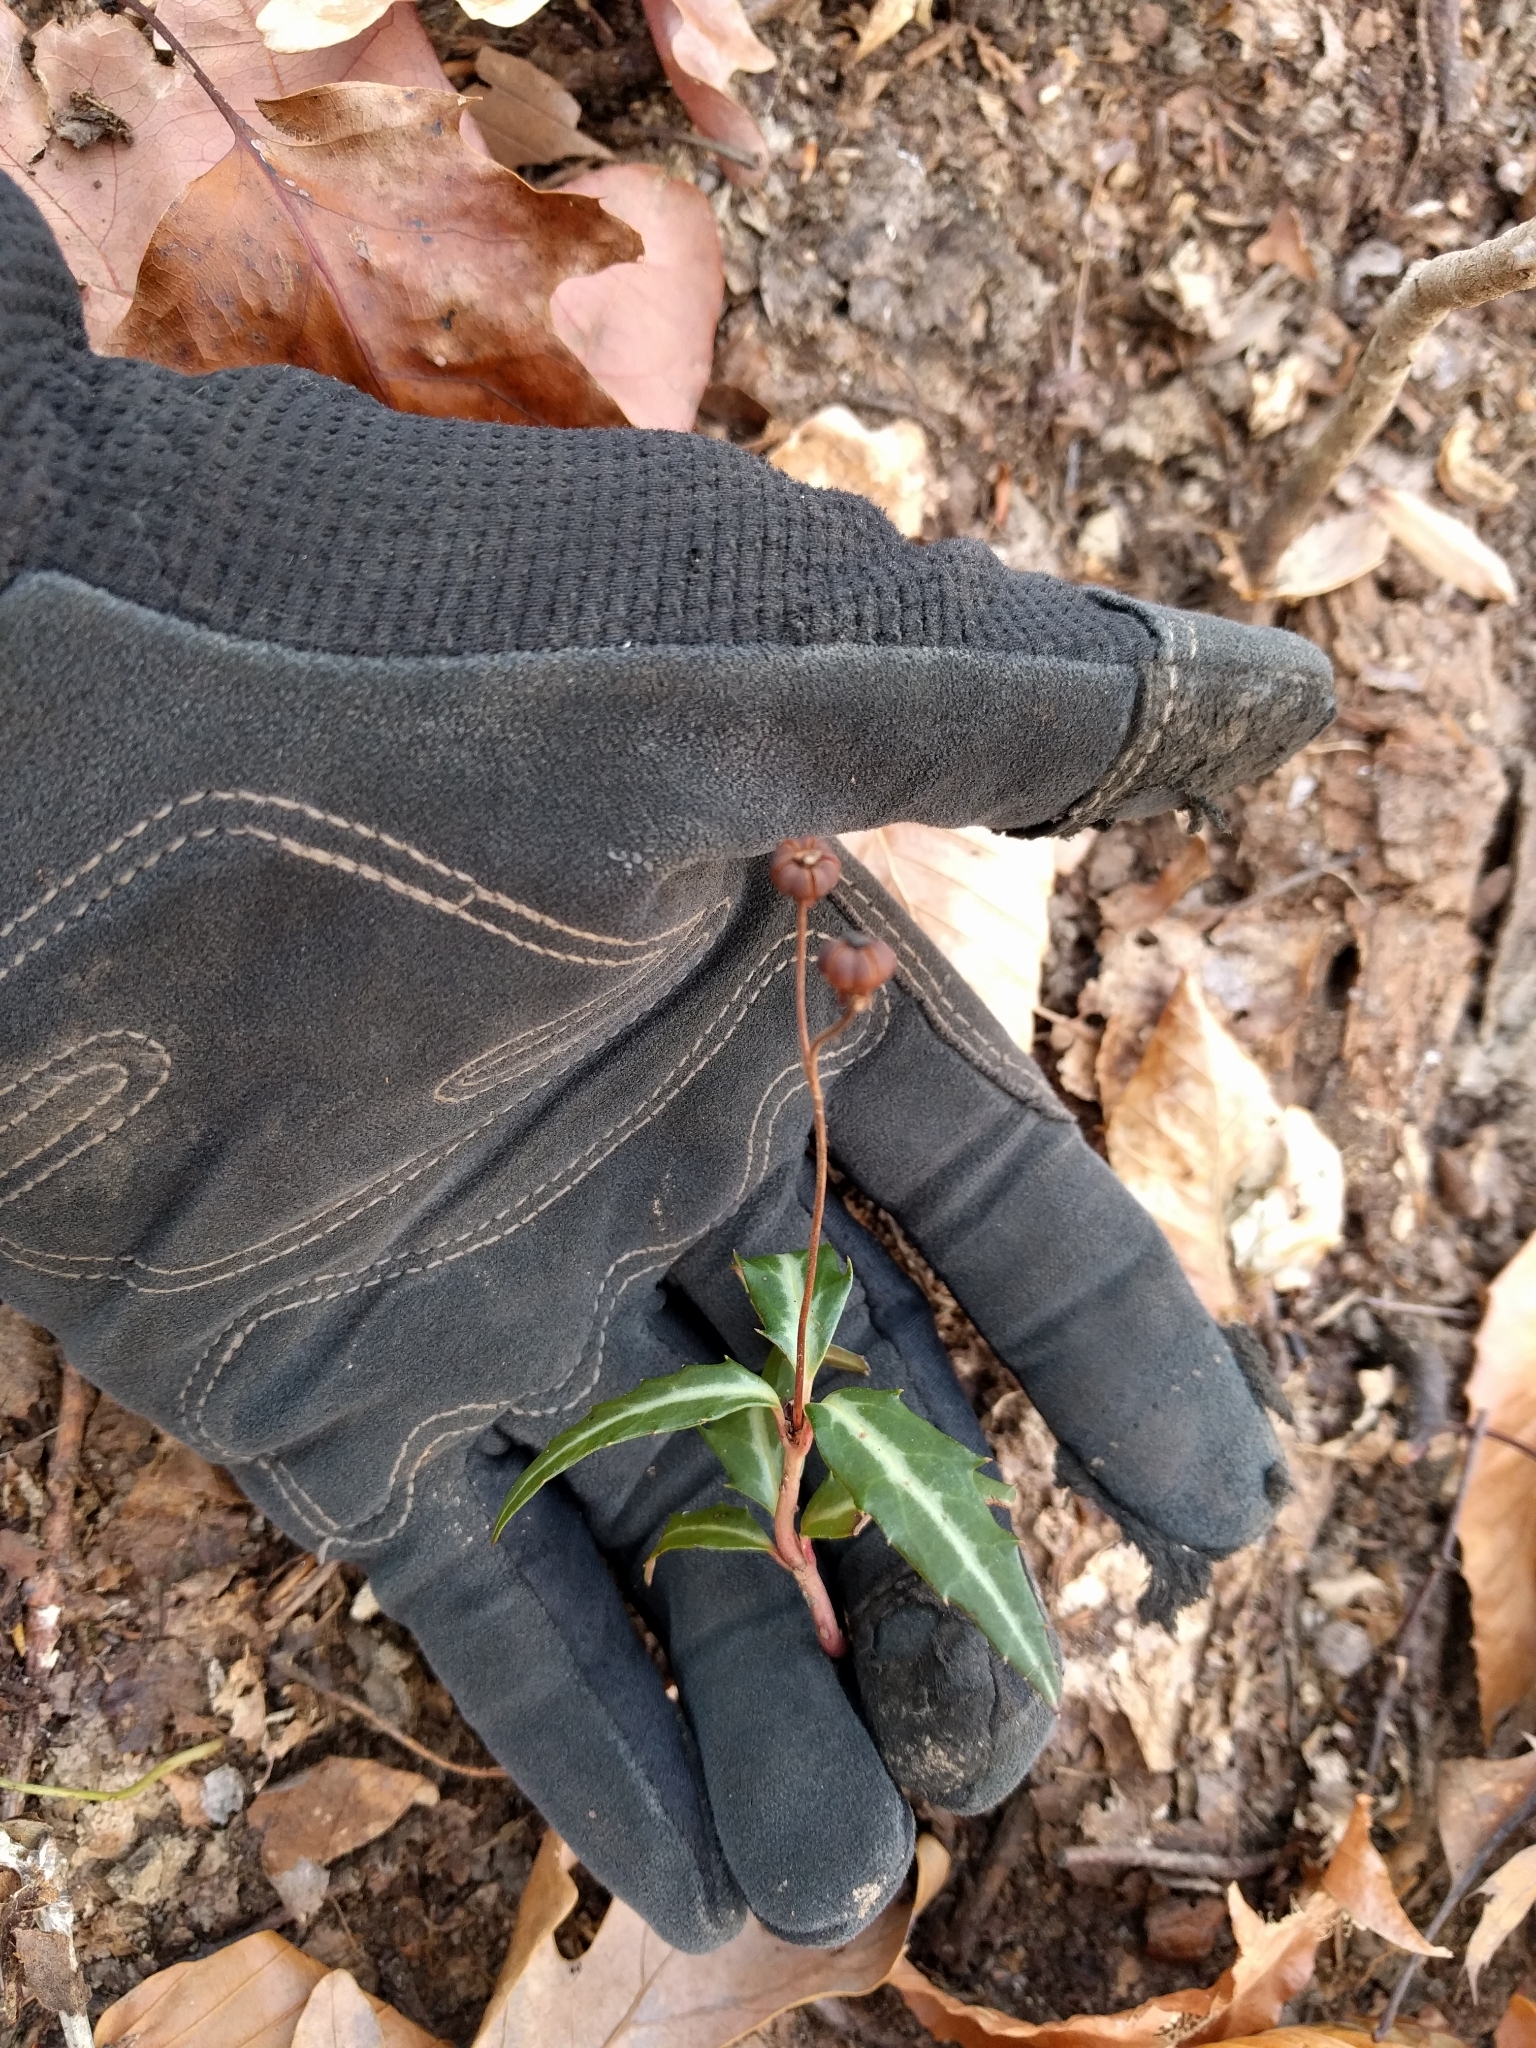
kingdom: Plantae
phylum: Tracheophyta
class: Magnoliopsida
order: Ericales
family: Ericaceae
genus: Chimaphila
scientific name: Chimaphila maculata
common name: Spotted pipsissewa
